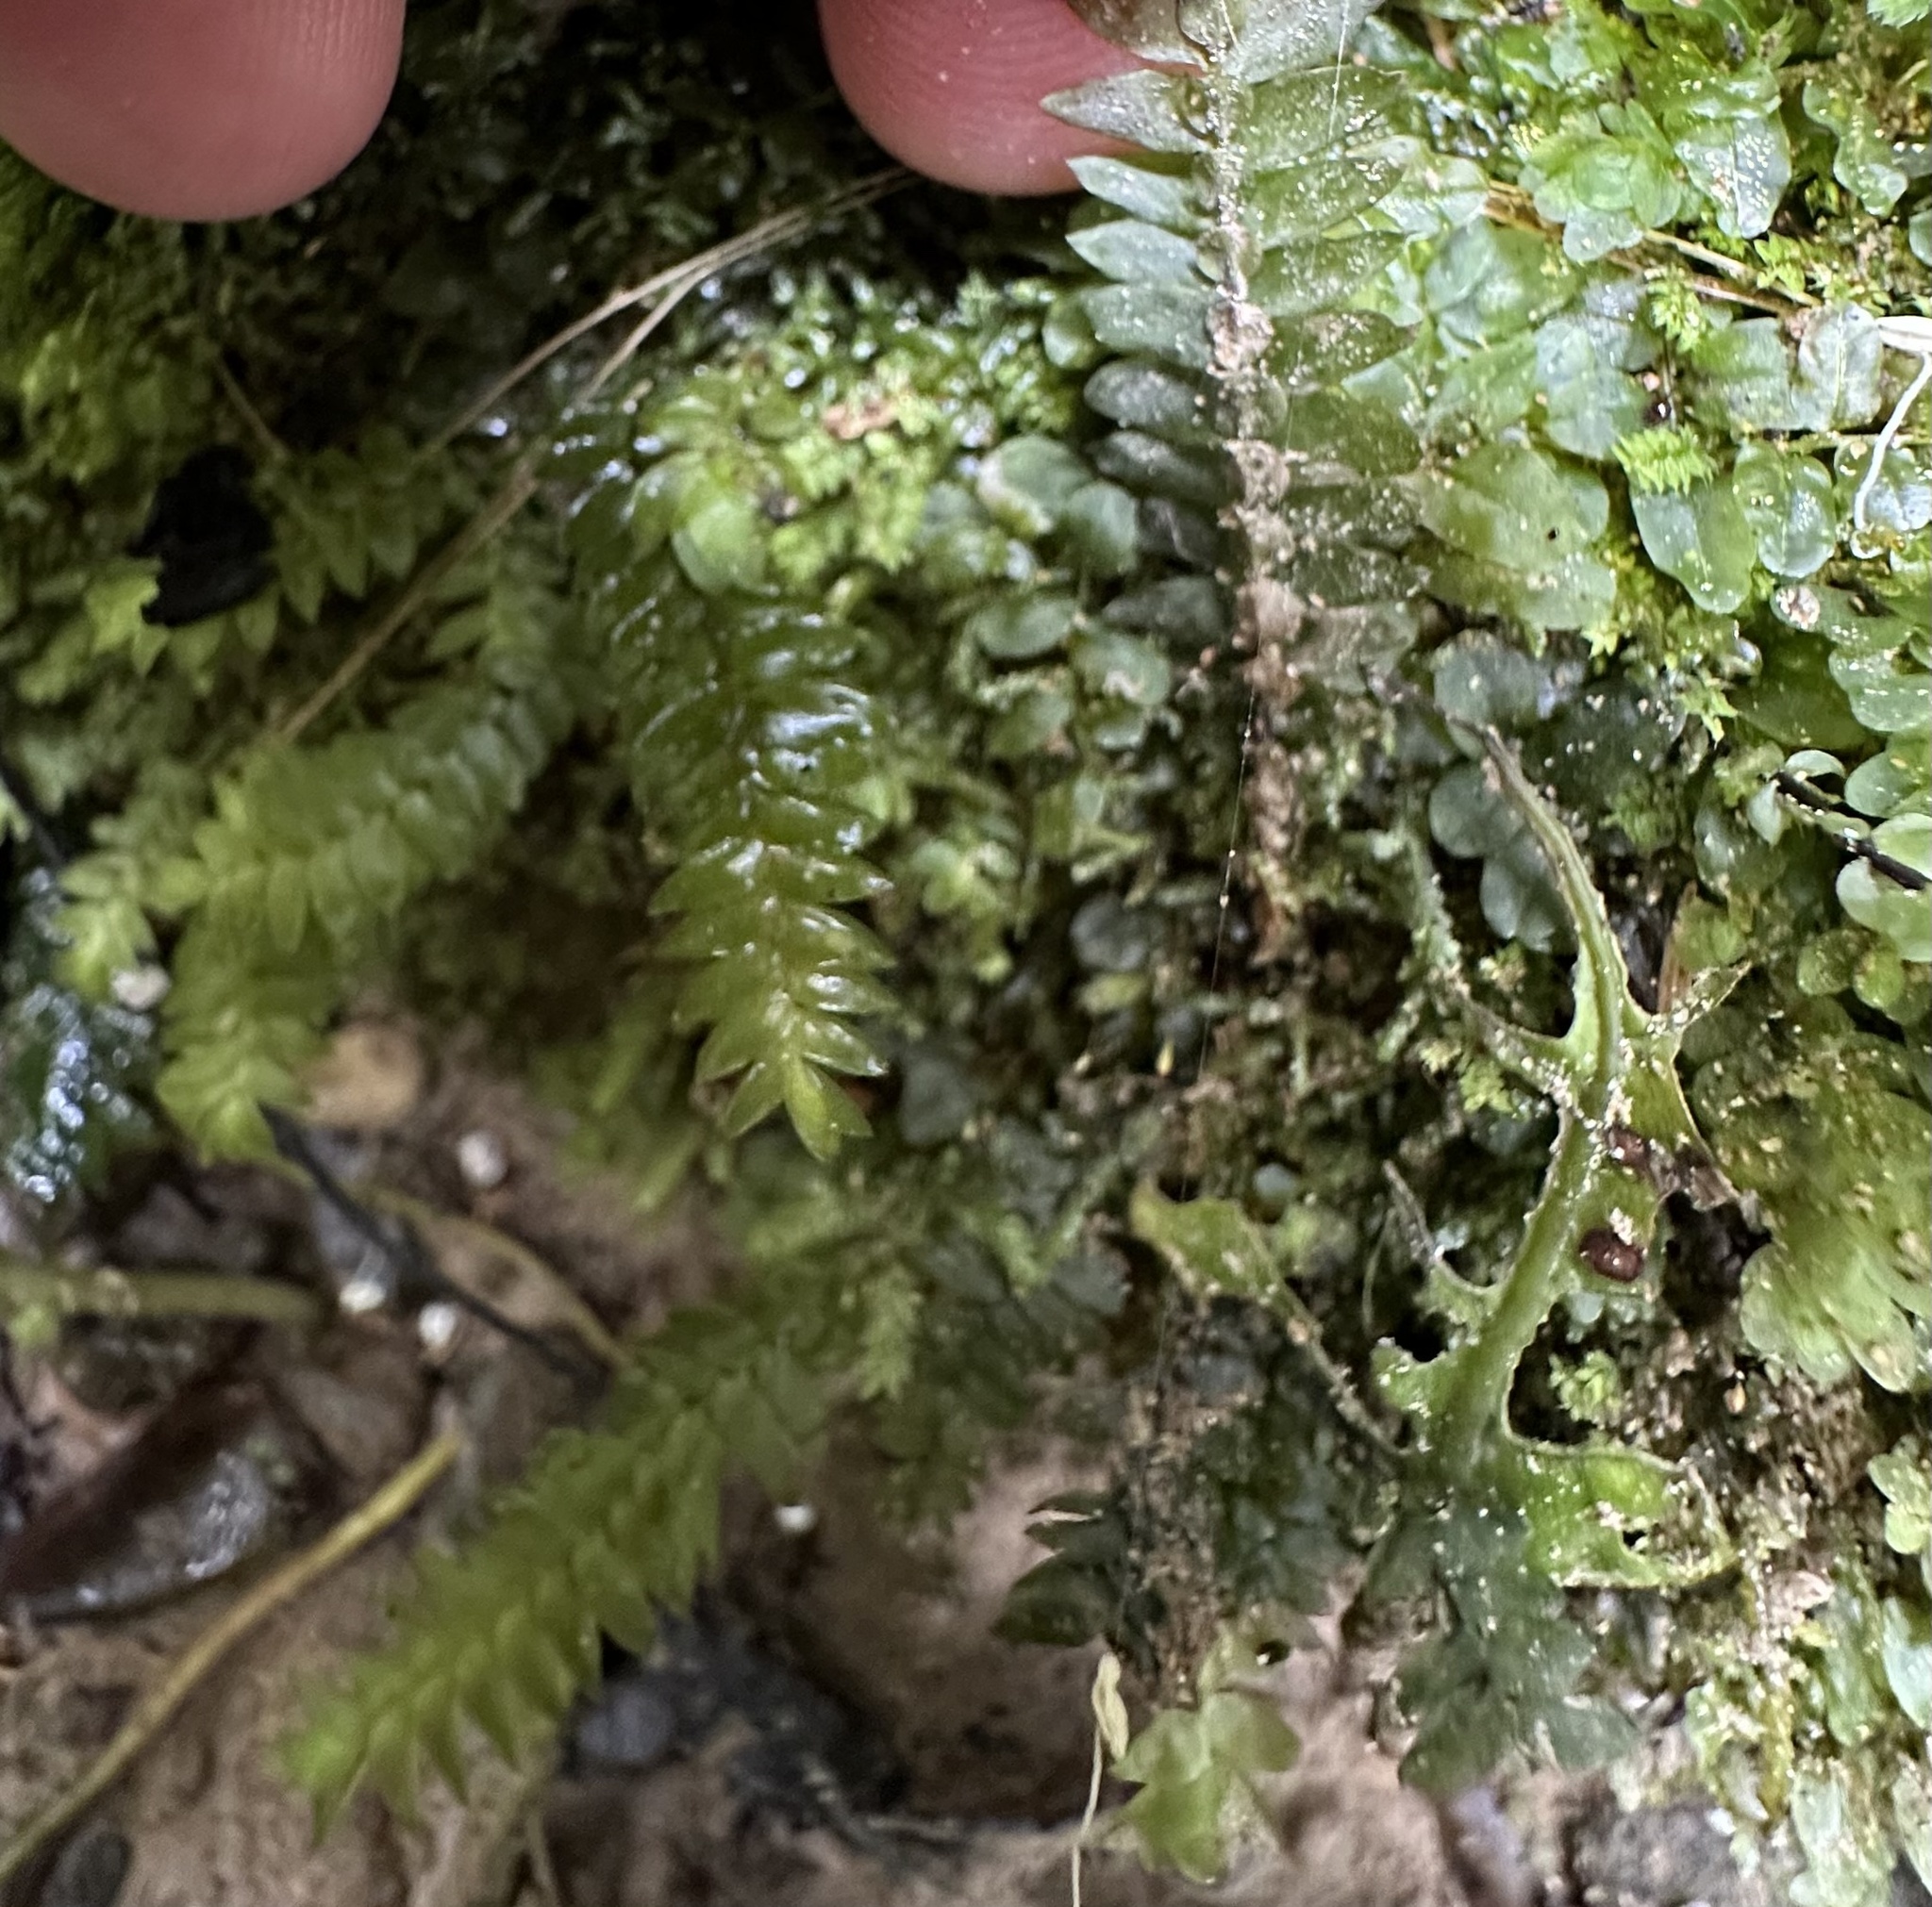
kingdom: Plantae
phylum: Bryophyta
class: Bryopsida
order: Hypopterygiales
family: Hypopterygiaceae
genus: Cyathophorum
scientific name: Cyathophorum bulbosum
